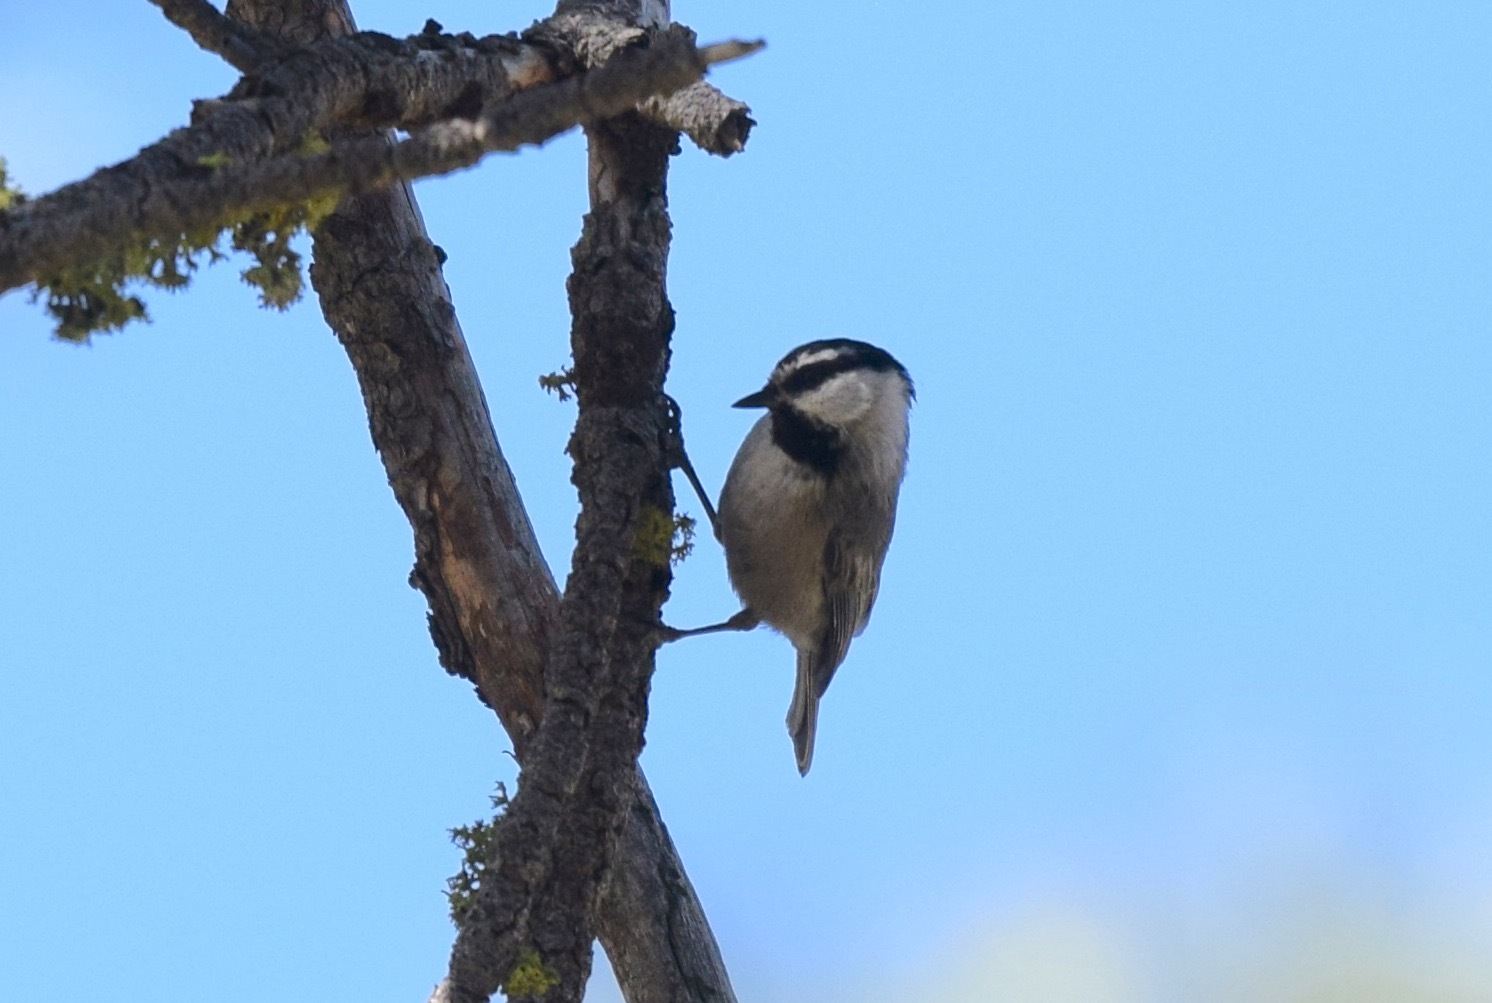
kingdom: Animalia
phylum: Chordata
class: Aves
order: Passeriformes
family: Paridae
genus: Poecile
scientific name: Poecile gambeli
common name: Mountain chickadee
